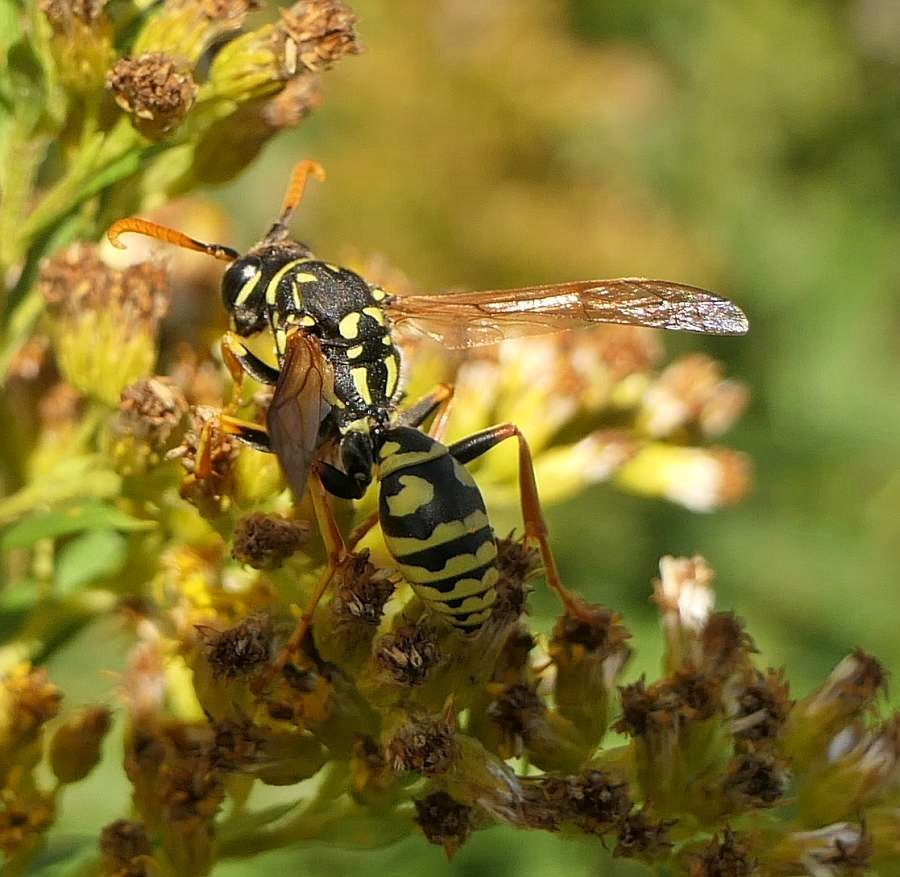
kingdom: Animalia
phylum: Arthropoda
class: Insecta
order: Hymenoptera
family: Eumenidae
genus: Polistes
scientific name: Polistes dominula
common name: Paper wasp
